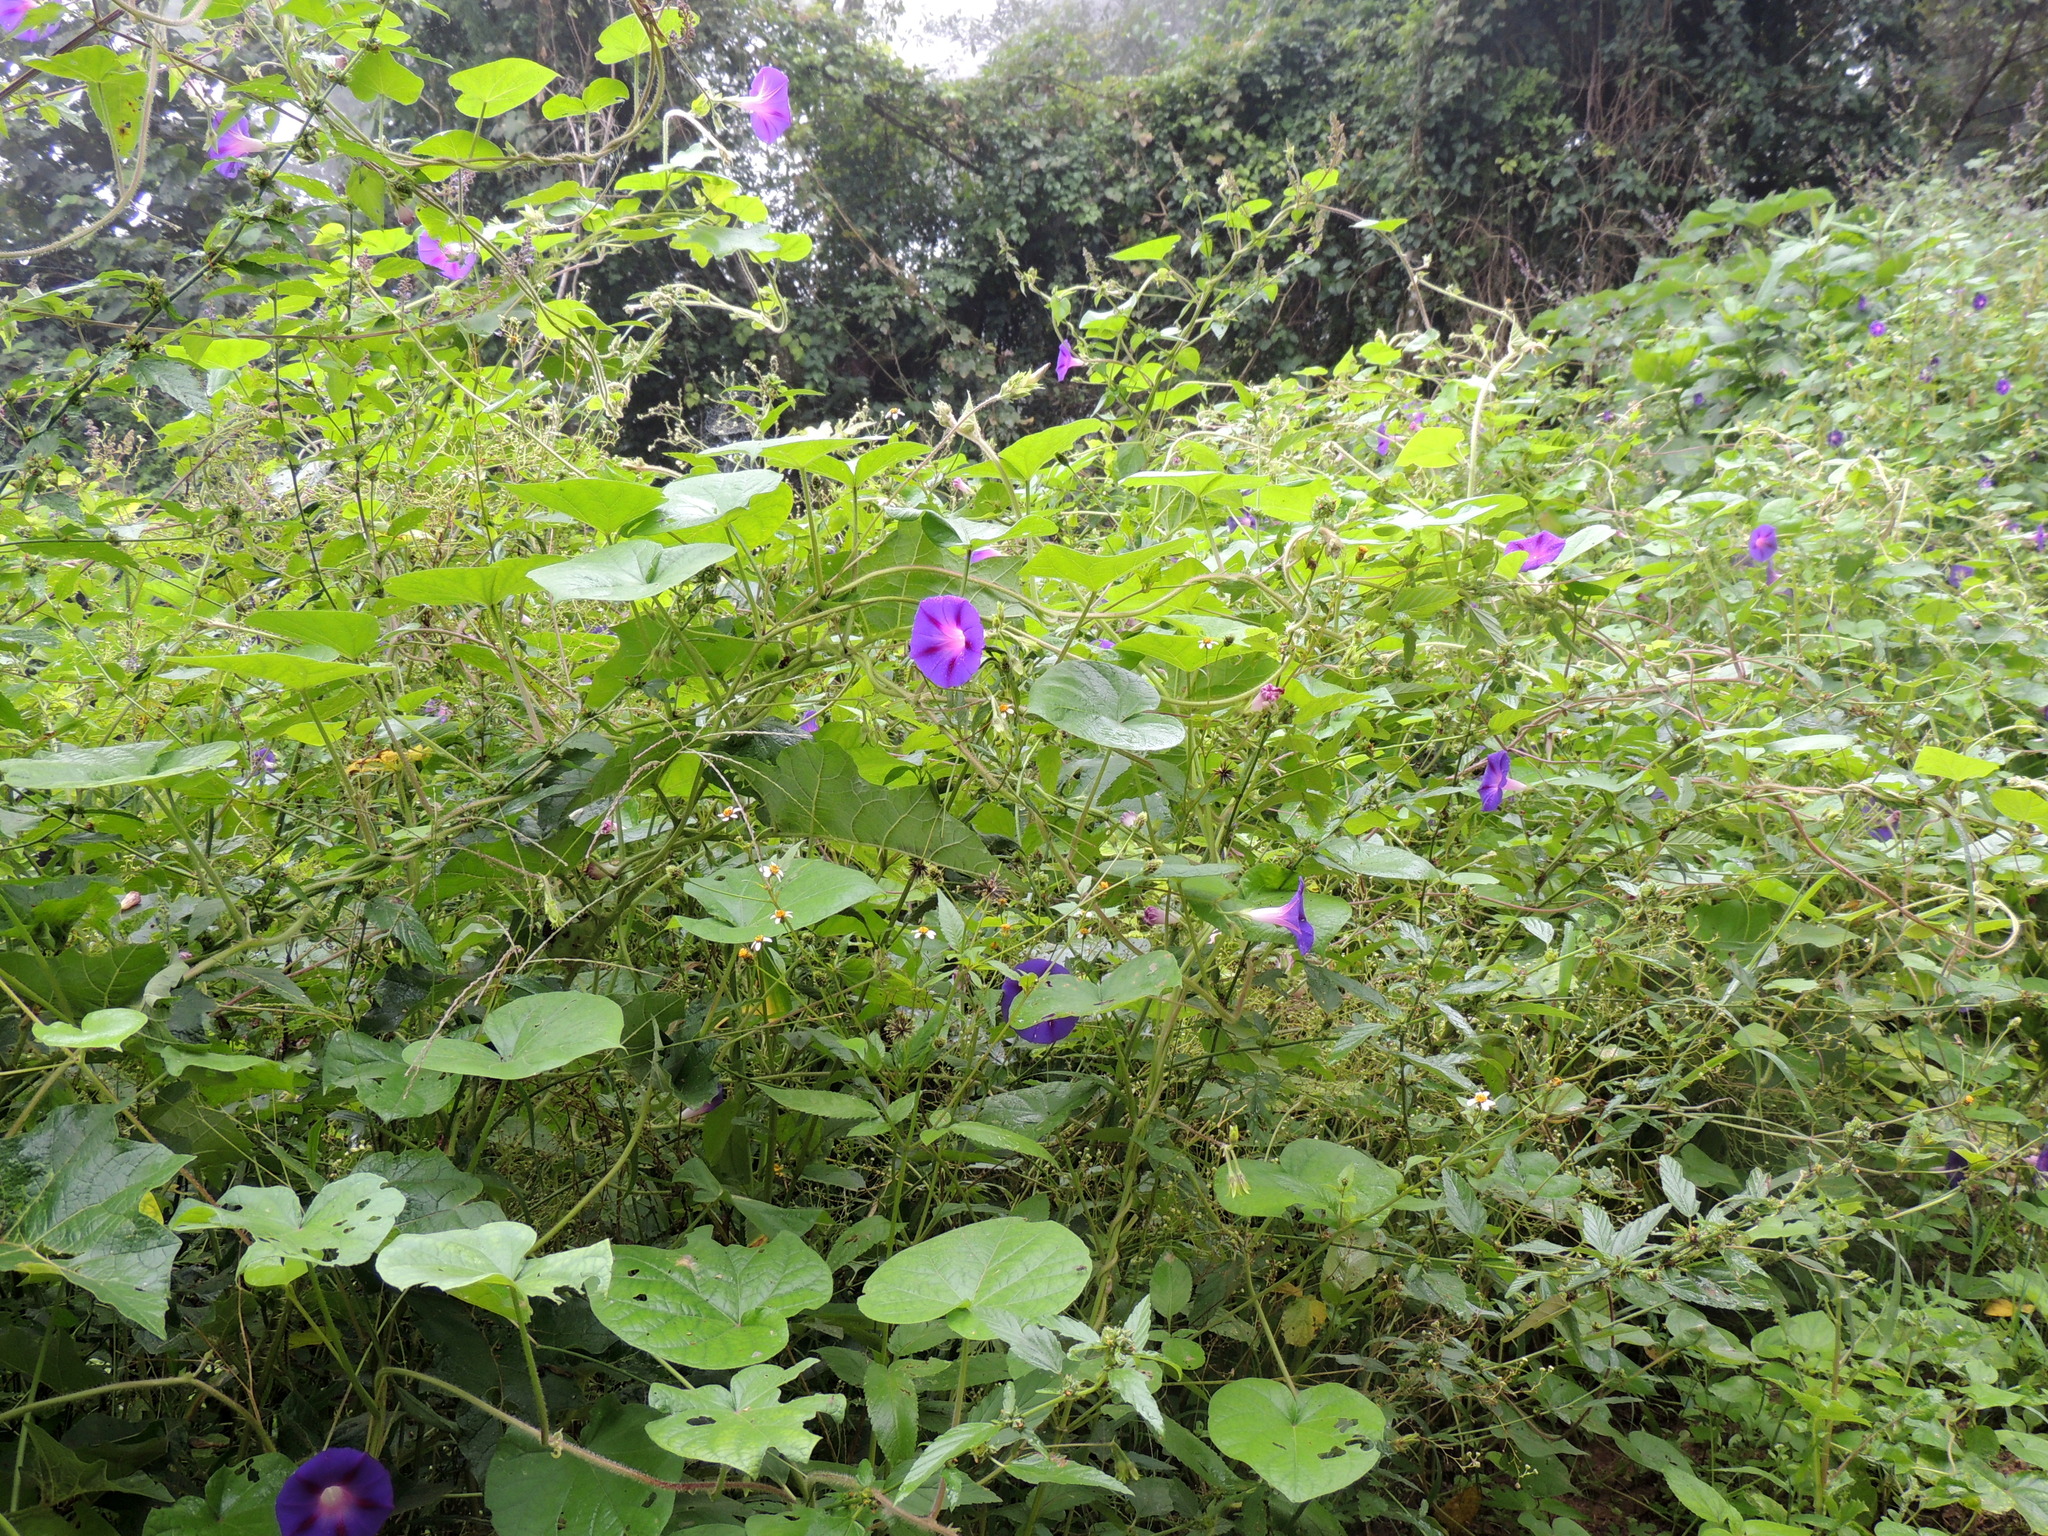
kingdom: Plantae
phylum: Tracheophyta
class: Magnoliopsida
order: Solanales
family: Convolvulaceae
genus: Ipomoea
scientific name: Ipomoea purpurea
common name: Common morning-glory
